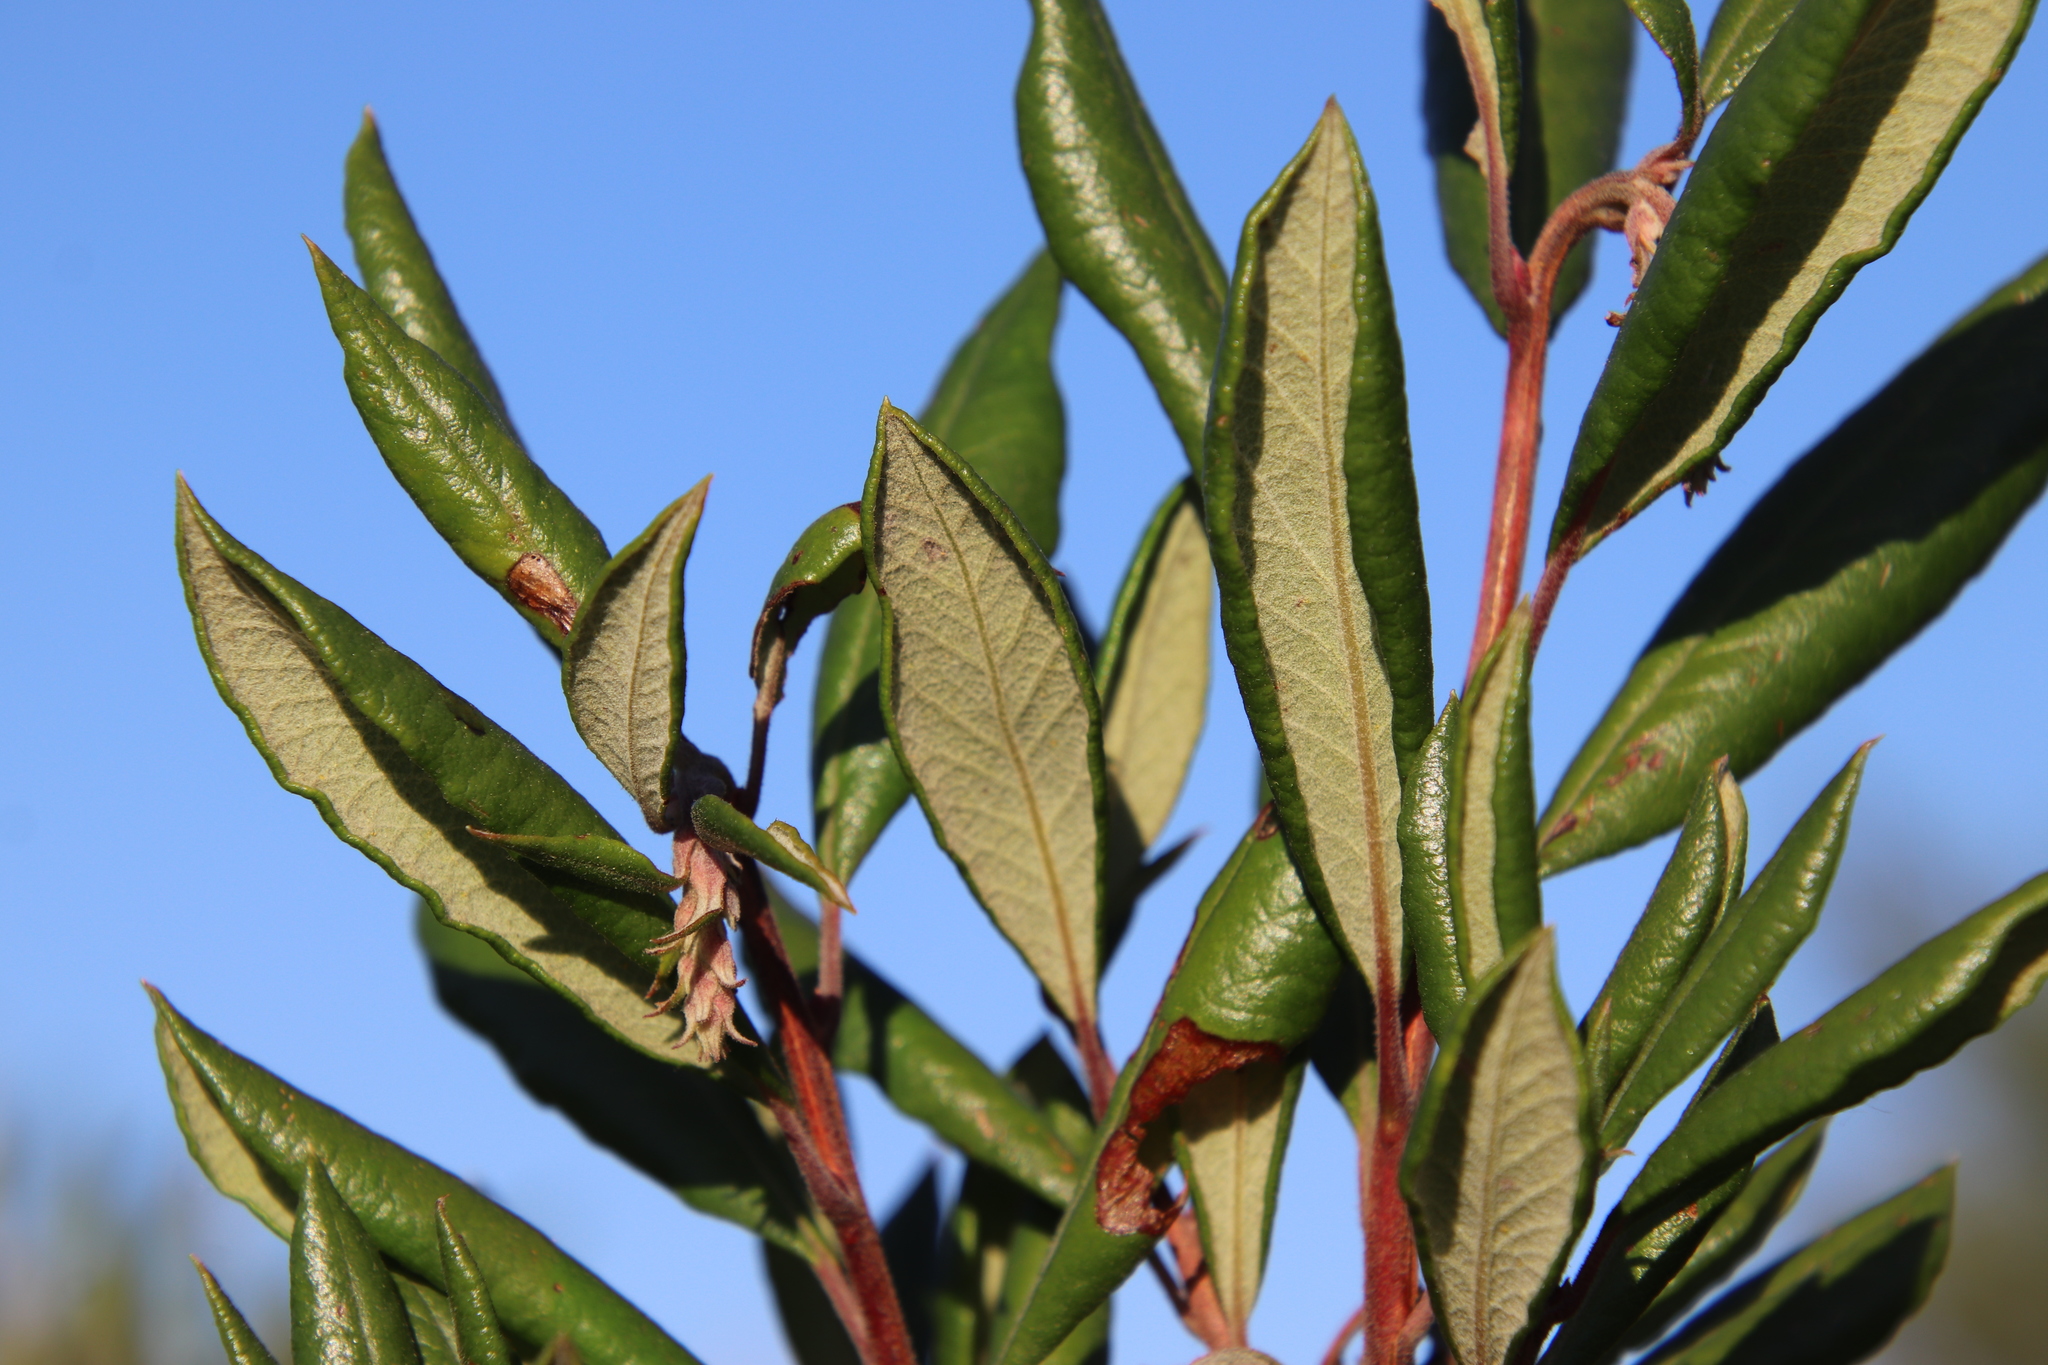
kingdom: Plantae
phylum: Tracheophyta
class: Magnoliopsida
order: Ericales
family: Ericaceae
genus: Arctostaphylos
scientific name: Arctostaphylos bicolor
